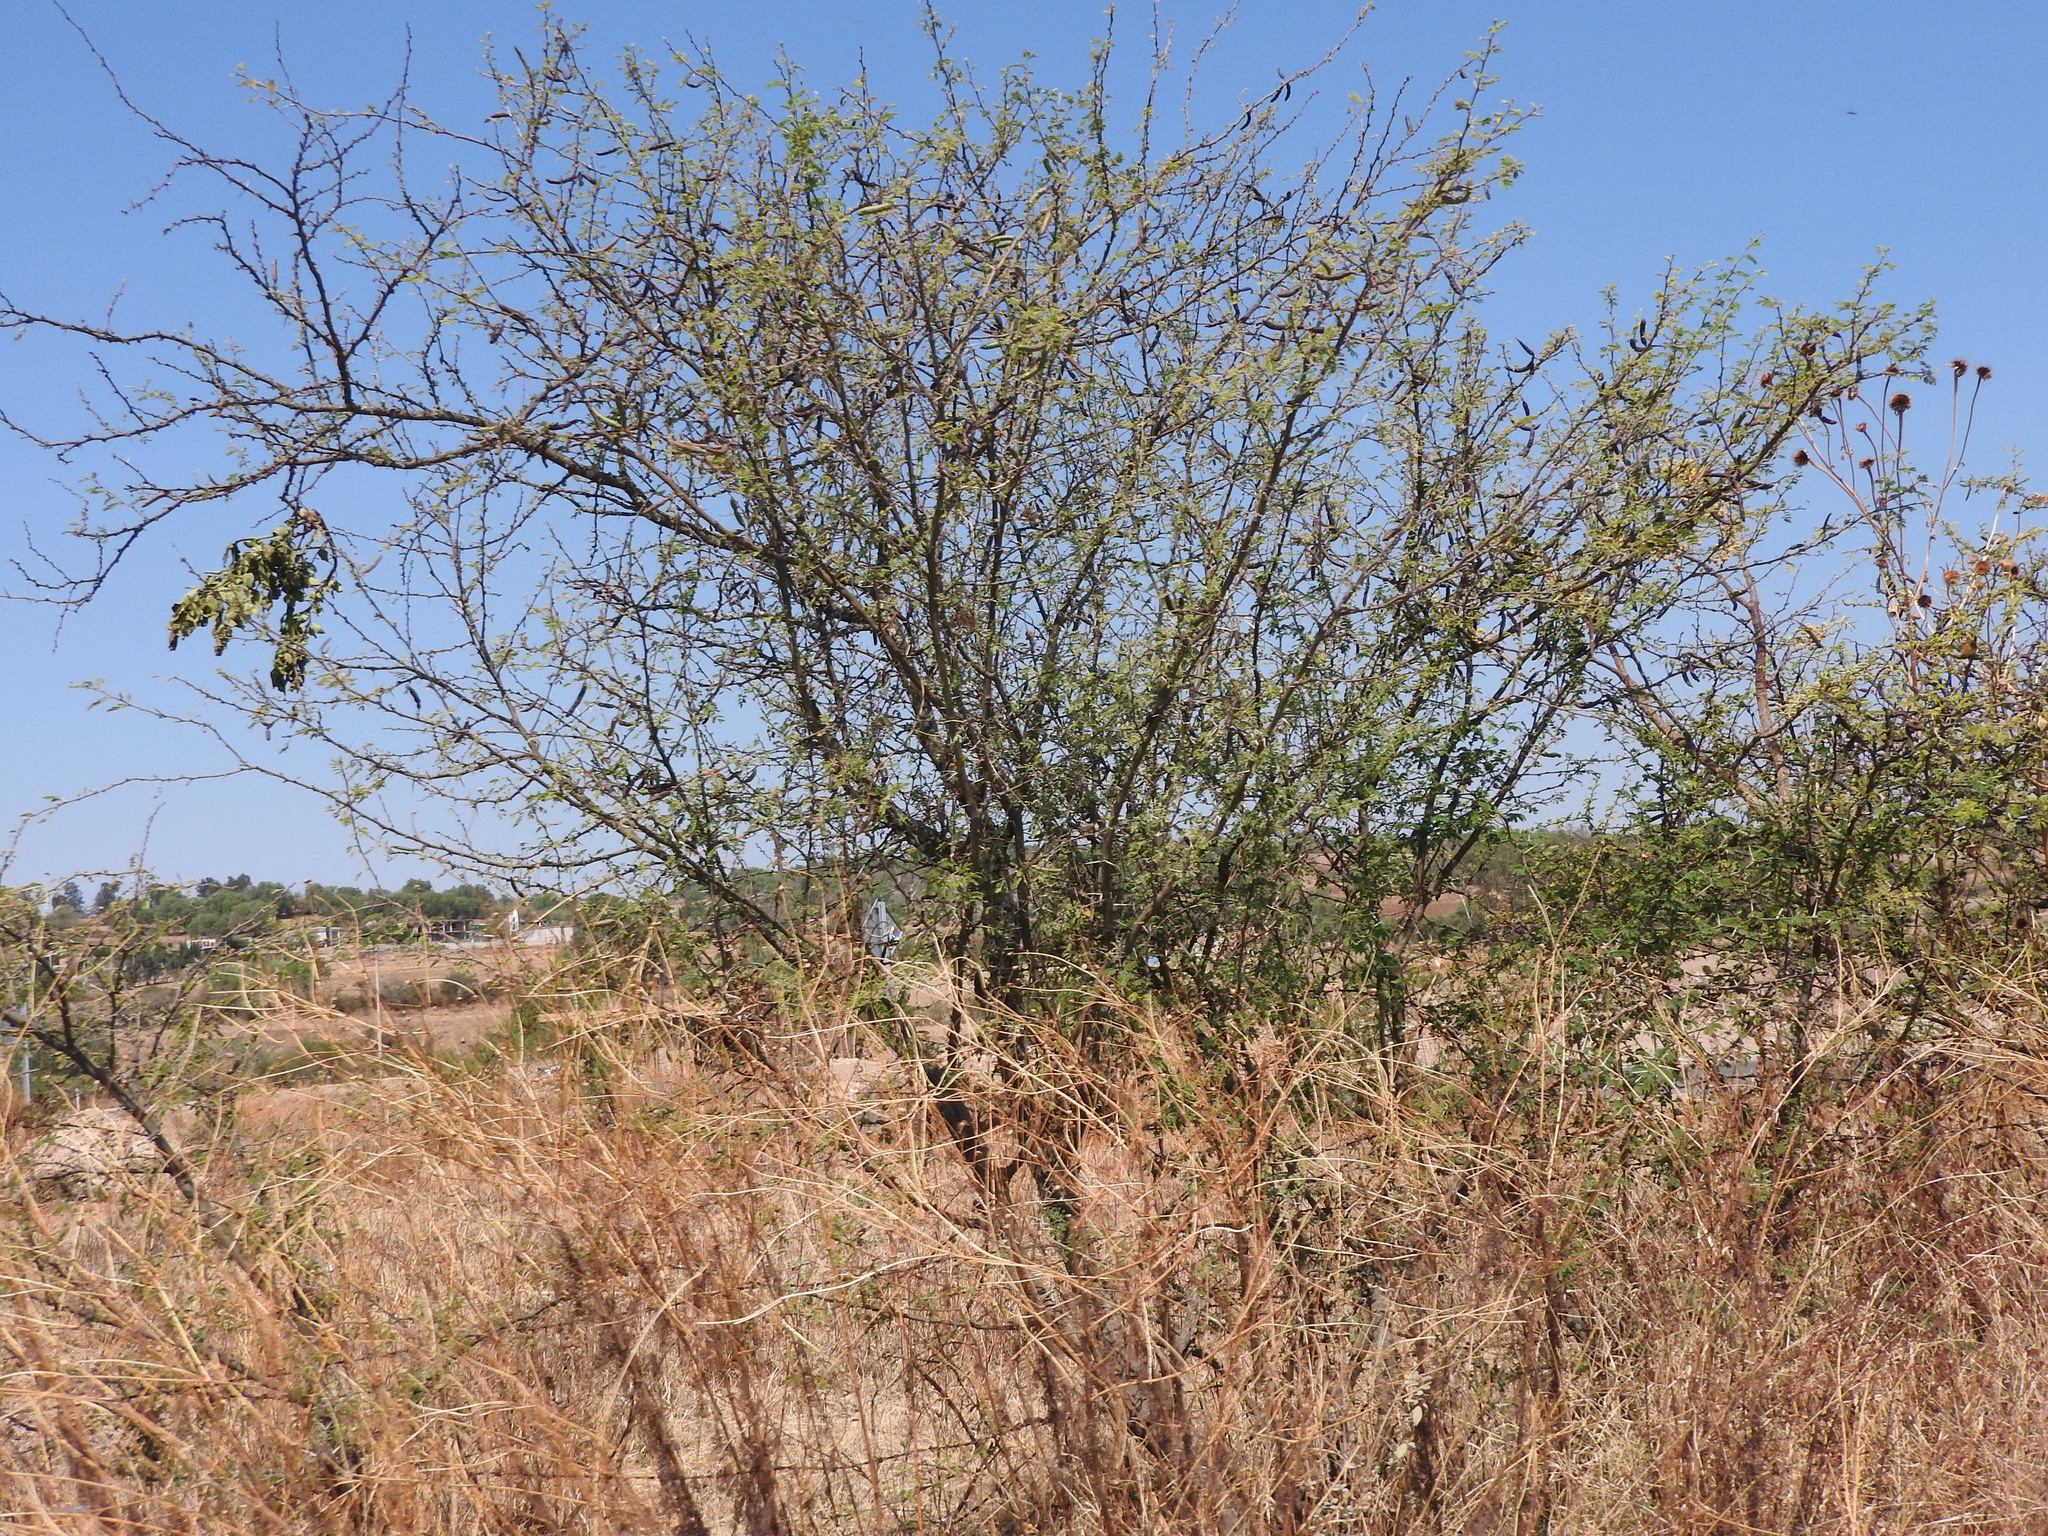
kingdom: Plantae
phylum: Tracheophyta
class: Magnoliopsida
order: Fabales
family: Fabaceae
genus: Vachellia
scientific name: Vachellia farnesiana
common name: Sweet acacia
